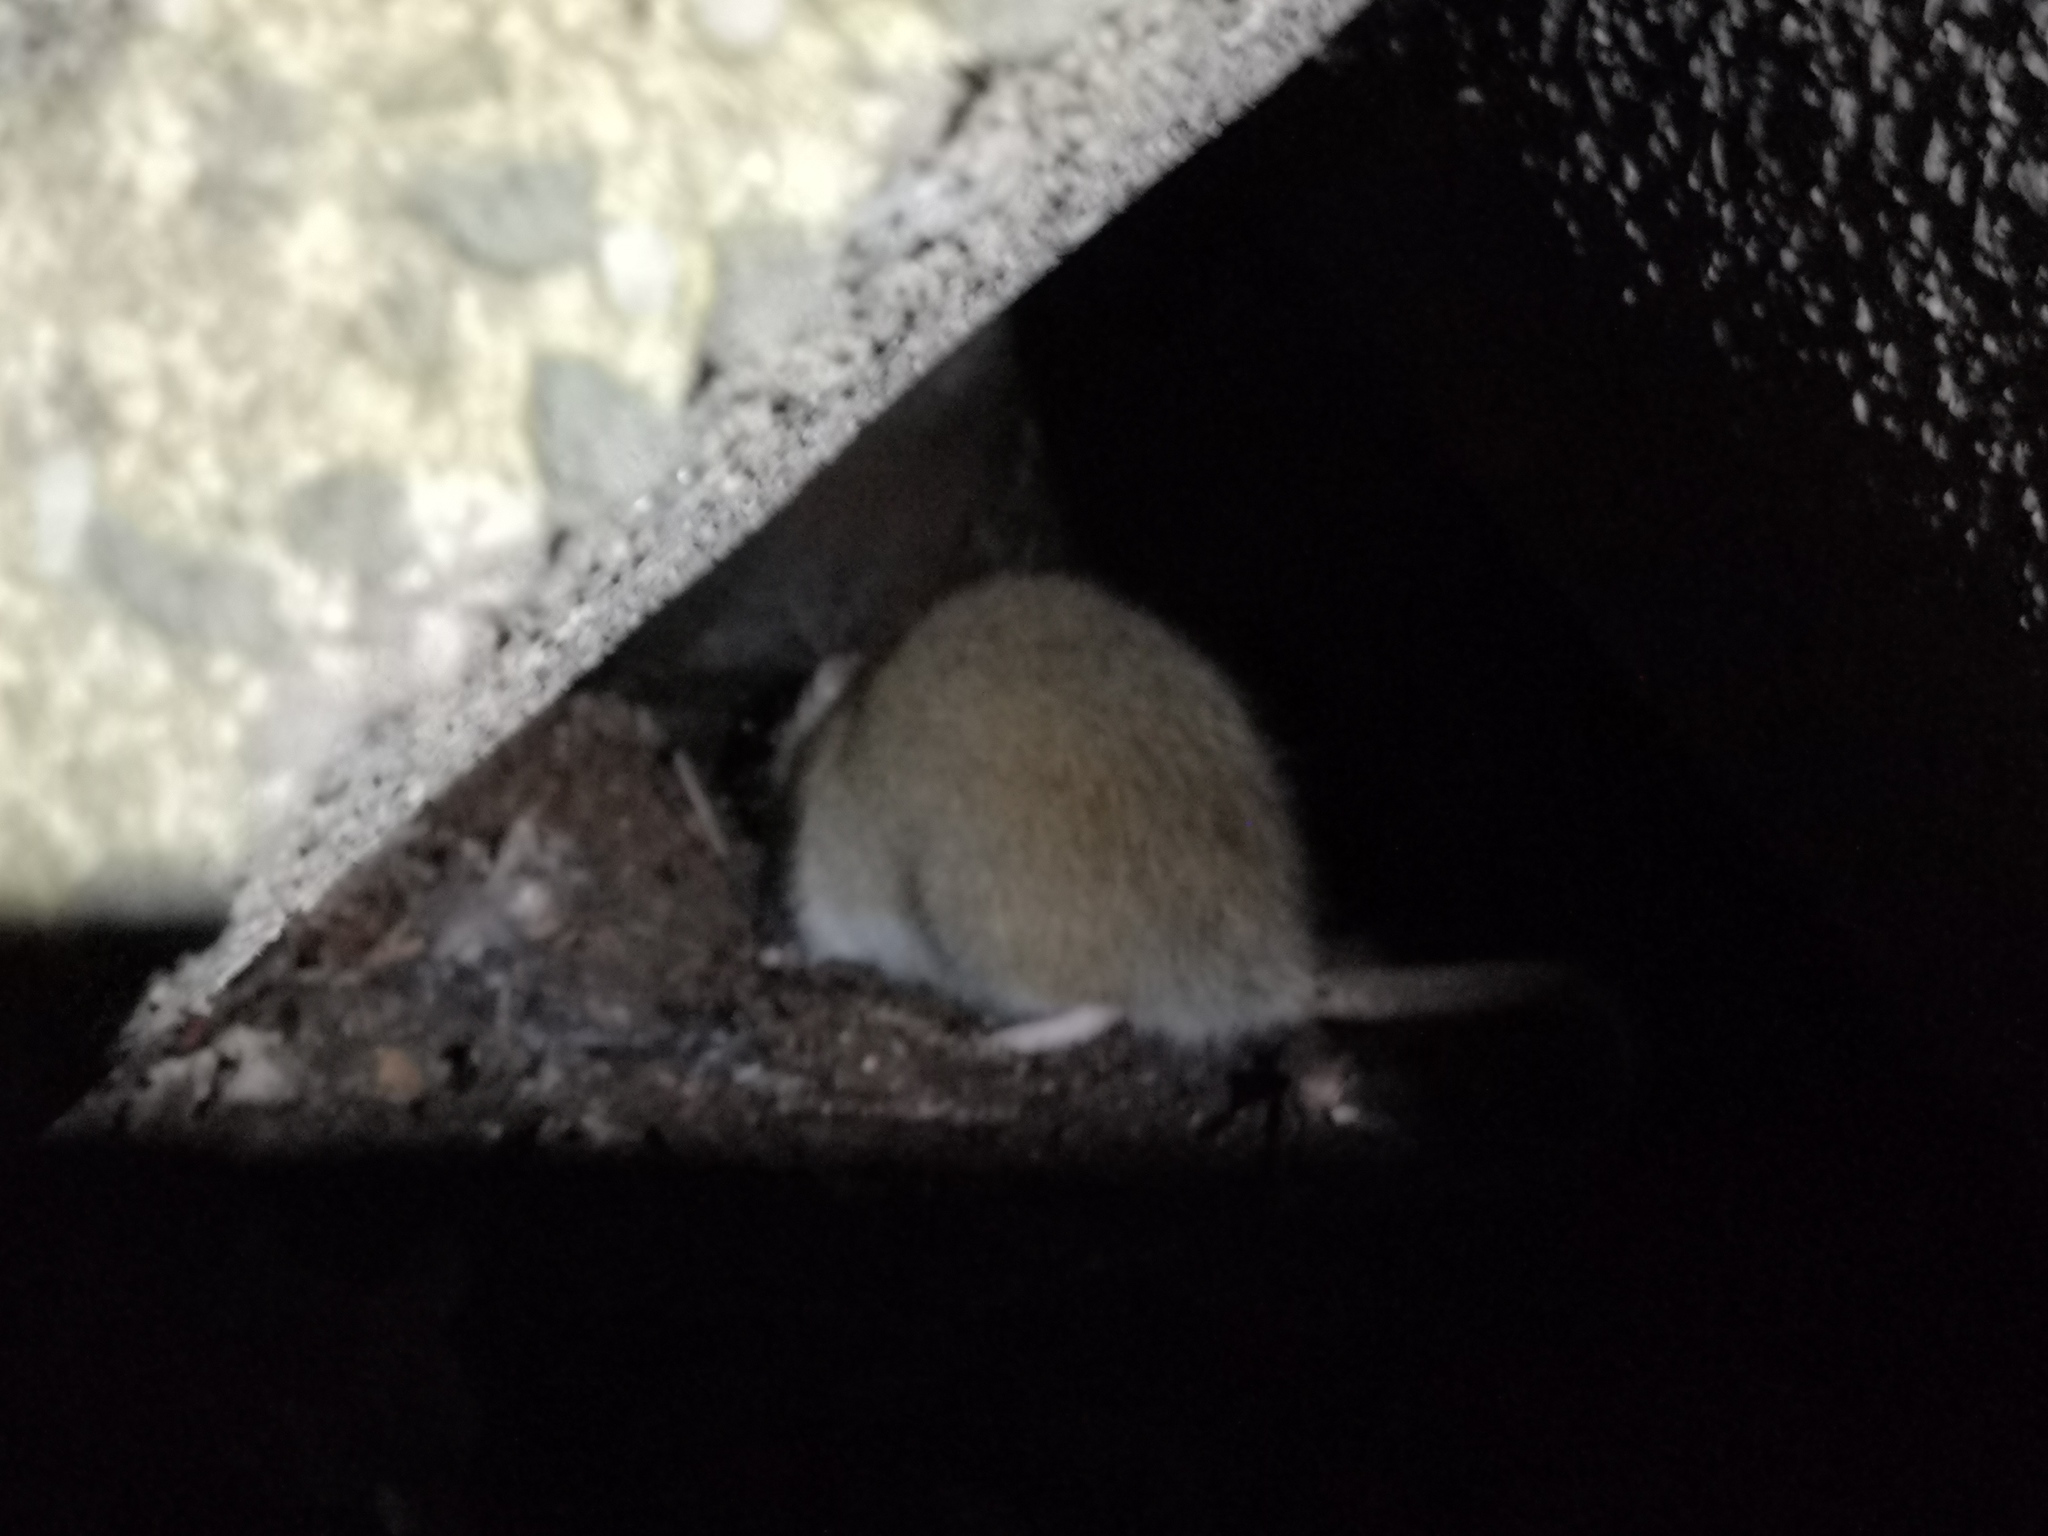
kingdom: Animalia
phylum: Chordata
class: Mammalia
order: Rodentia
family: Muridae
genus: Rattus
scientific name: Rattus norvegicus
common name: Brown rat
